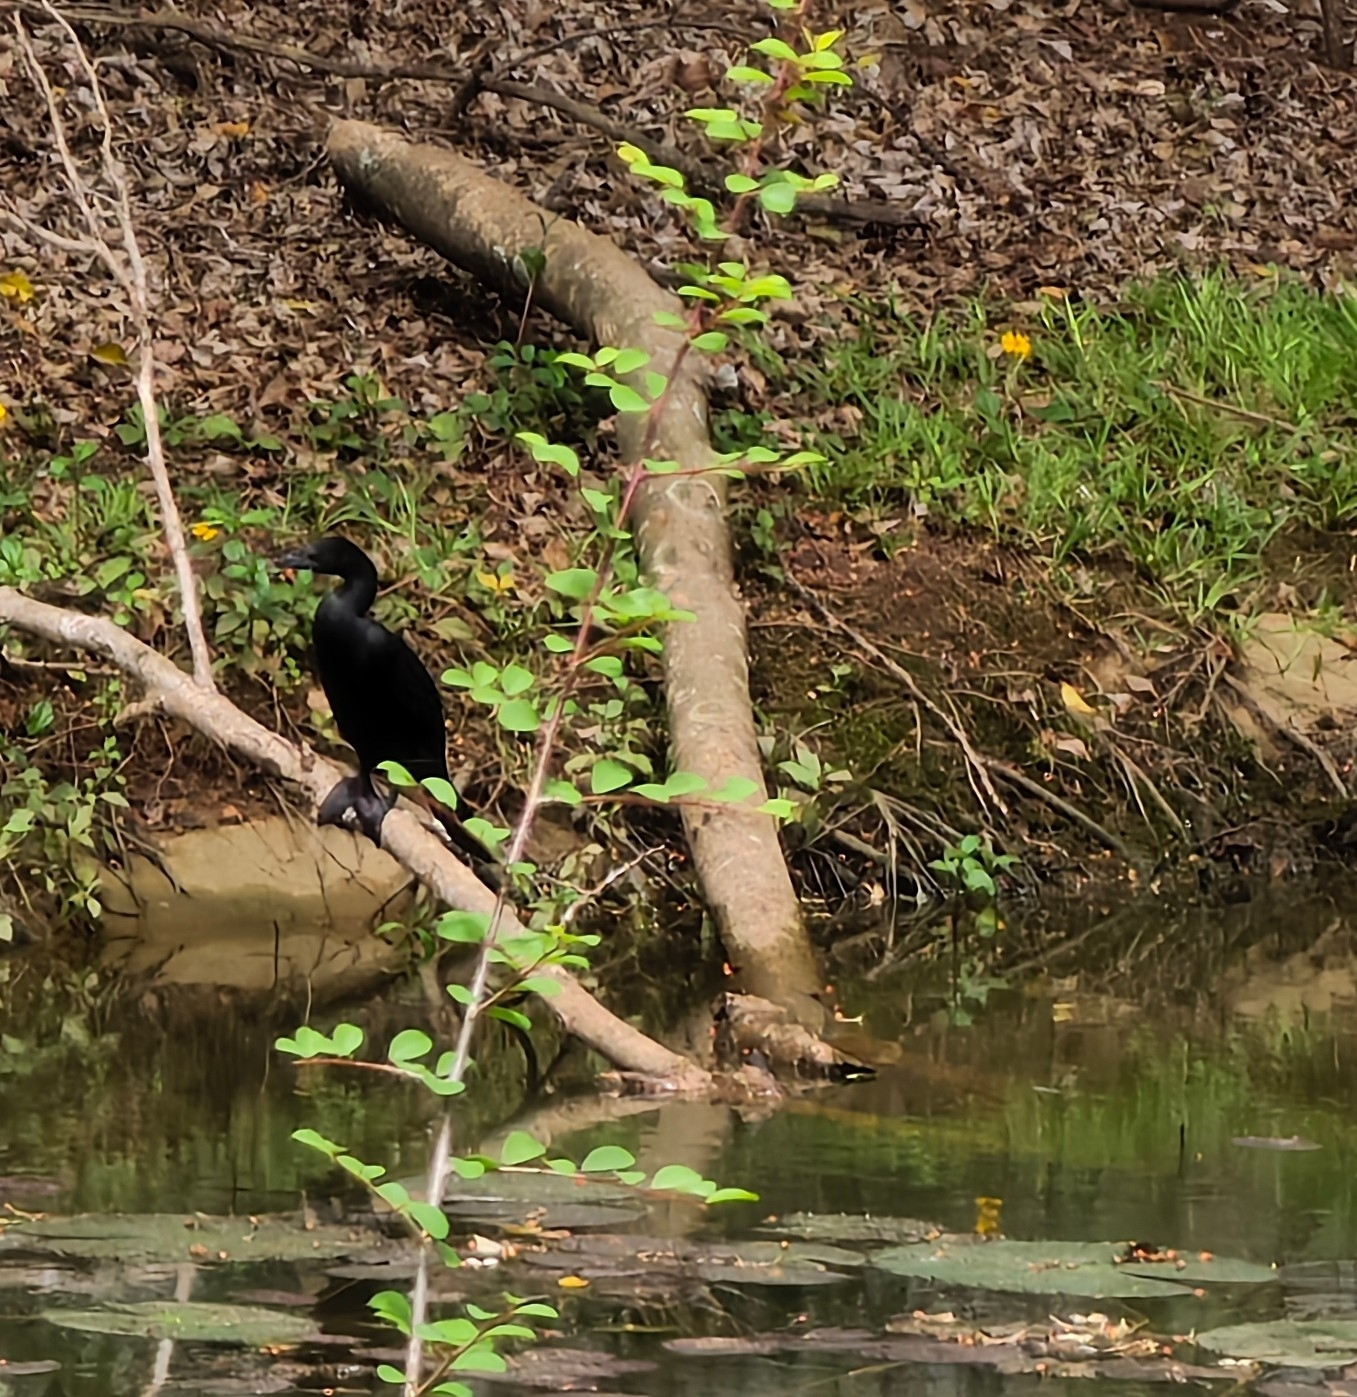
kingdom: Animalia
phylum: Chordata
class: Aves
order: Suliformes
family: Phalacrocoracidae
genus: Microcarbo
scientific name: Microcarbo niger
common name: Little cormorant
